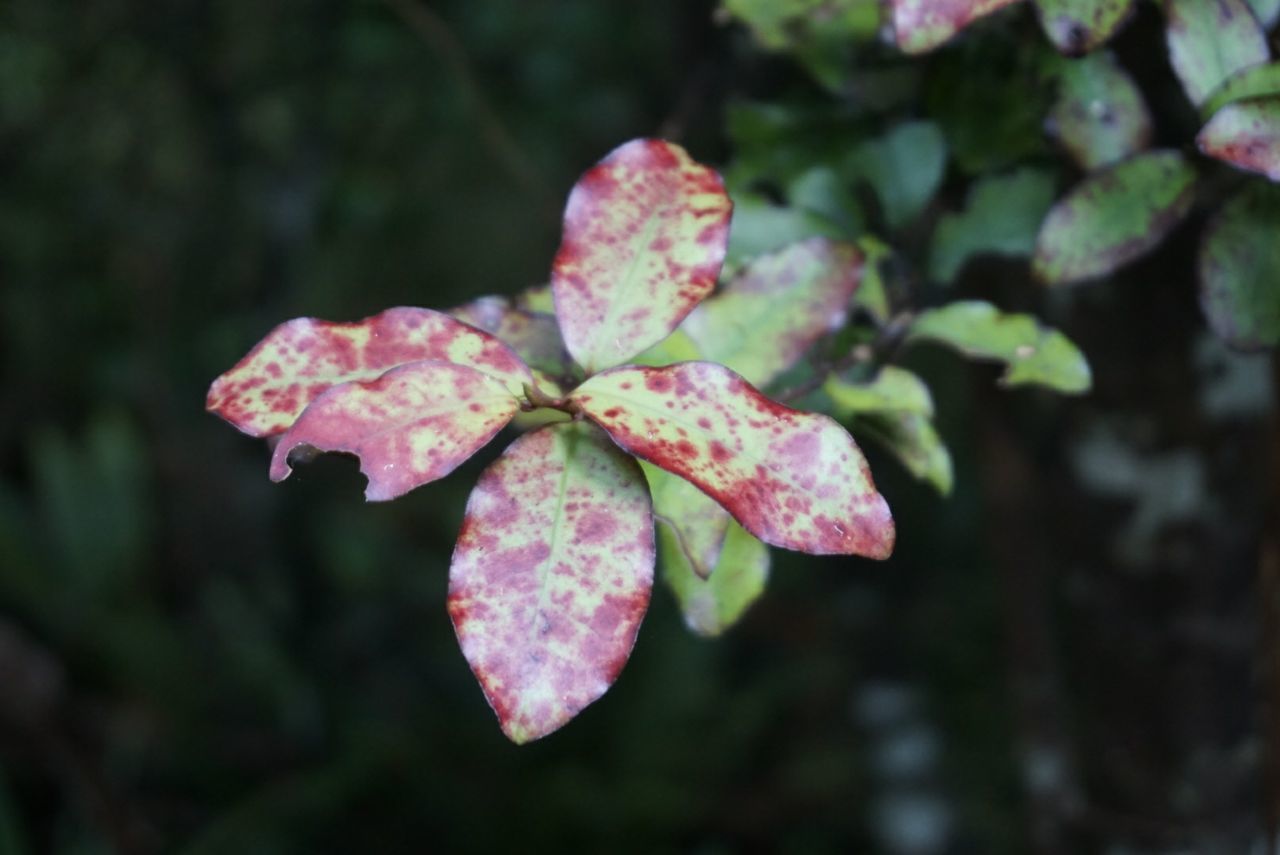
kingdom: Plantae
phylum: Tracheophyta
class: Magnoliopsida
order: Canellales
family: Winteraceae
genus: Pseudowintera
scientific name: Pseudowintera colorata
